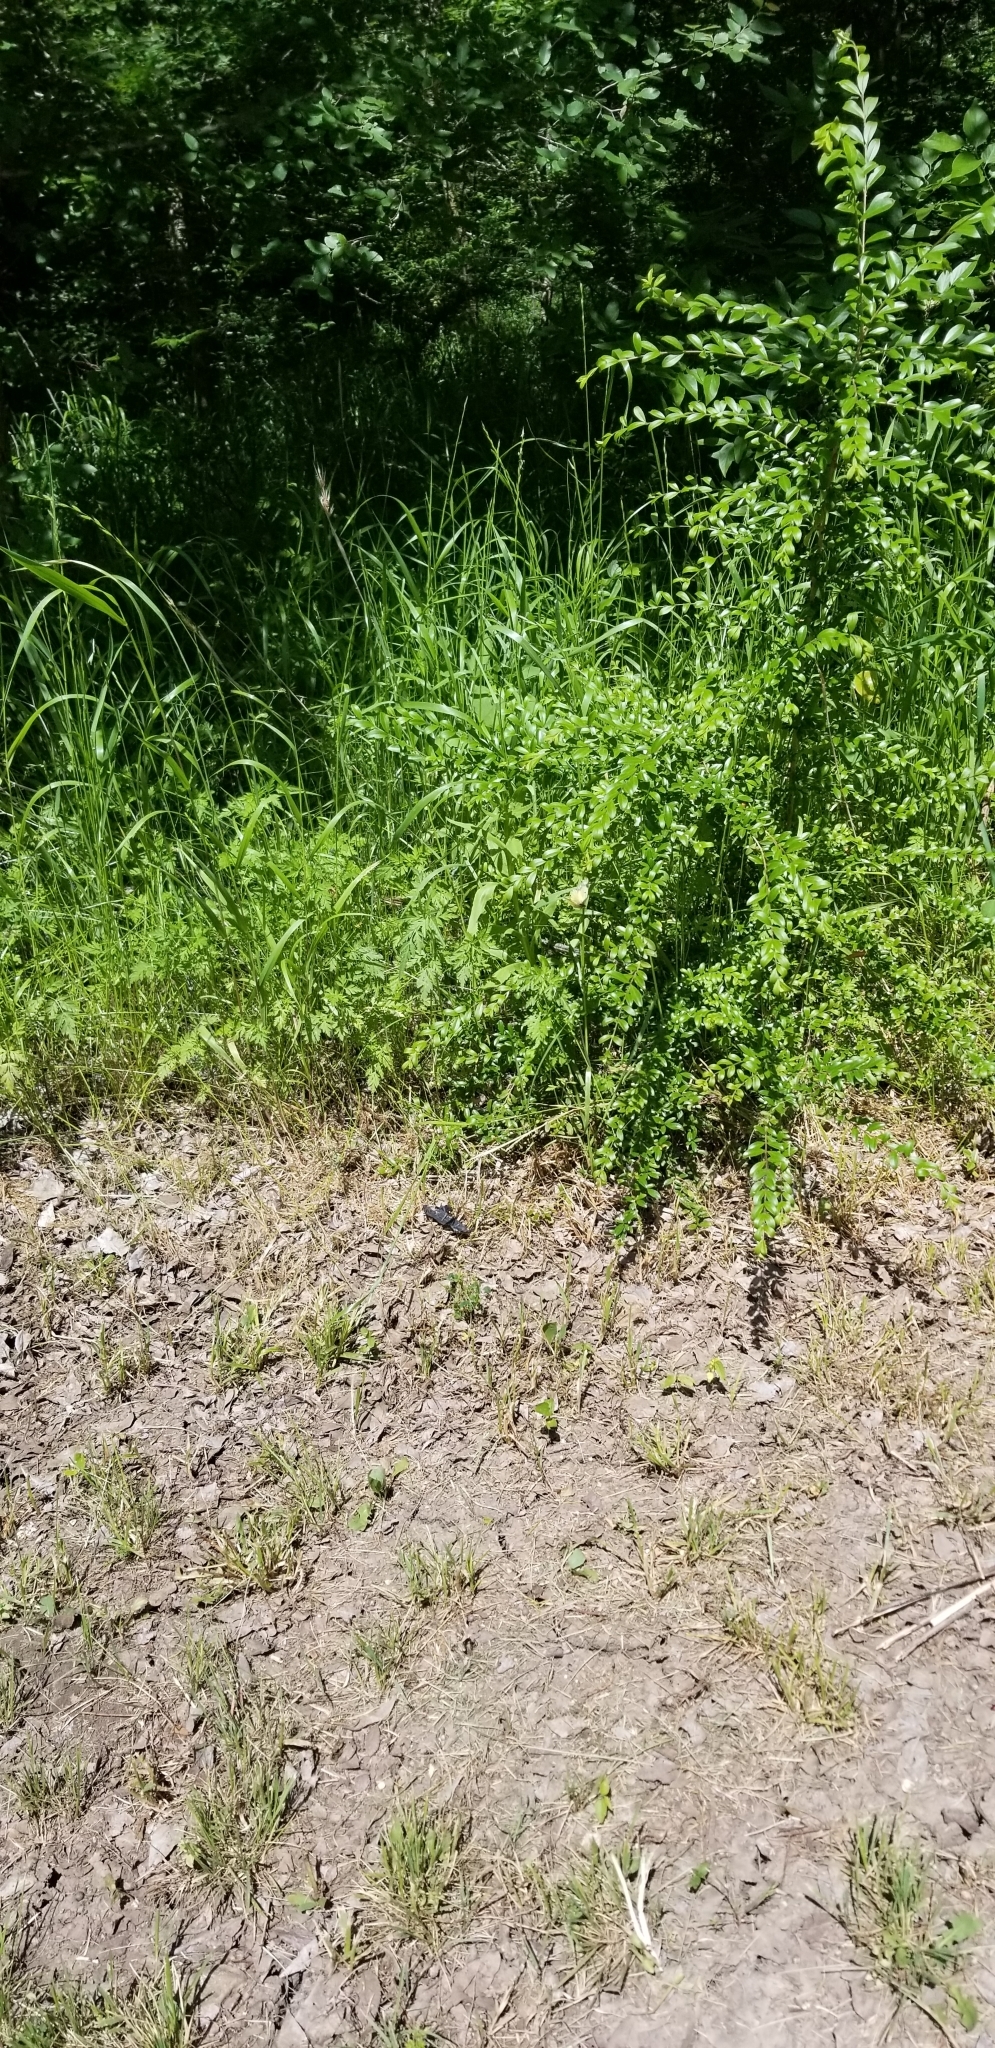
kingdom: Animalia
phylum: Arthropoda
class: Insecta
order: Lepidoptera
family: Pieridae
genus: Colias
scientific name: Colias eurytheme
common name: Alfalfa butterfly
